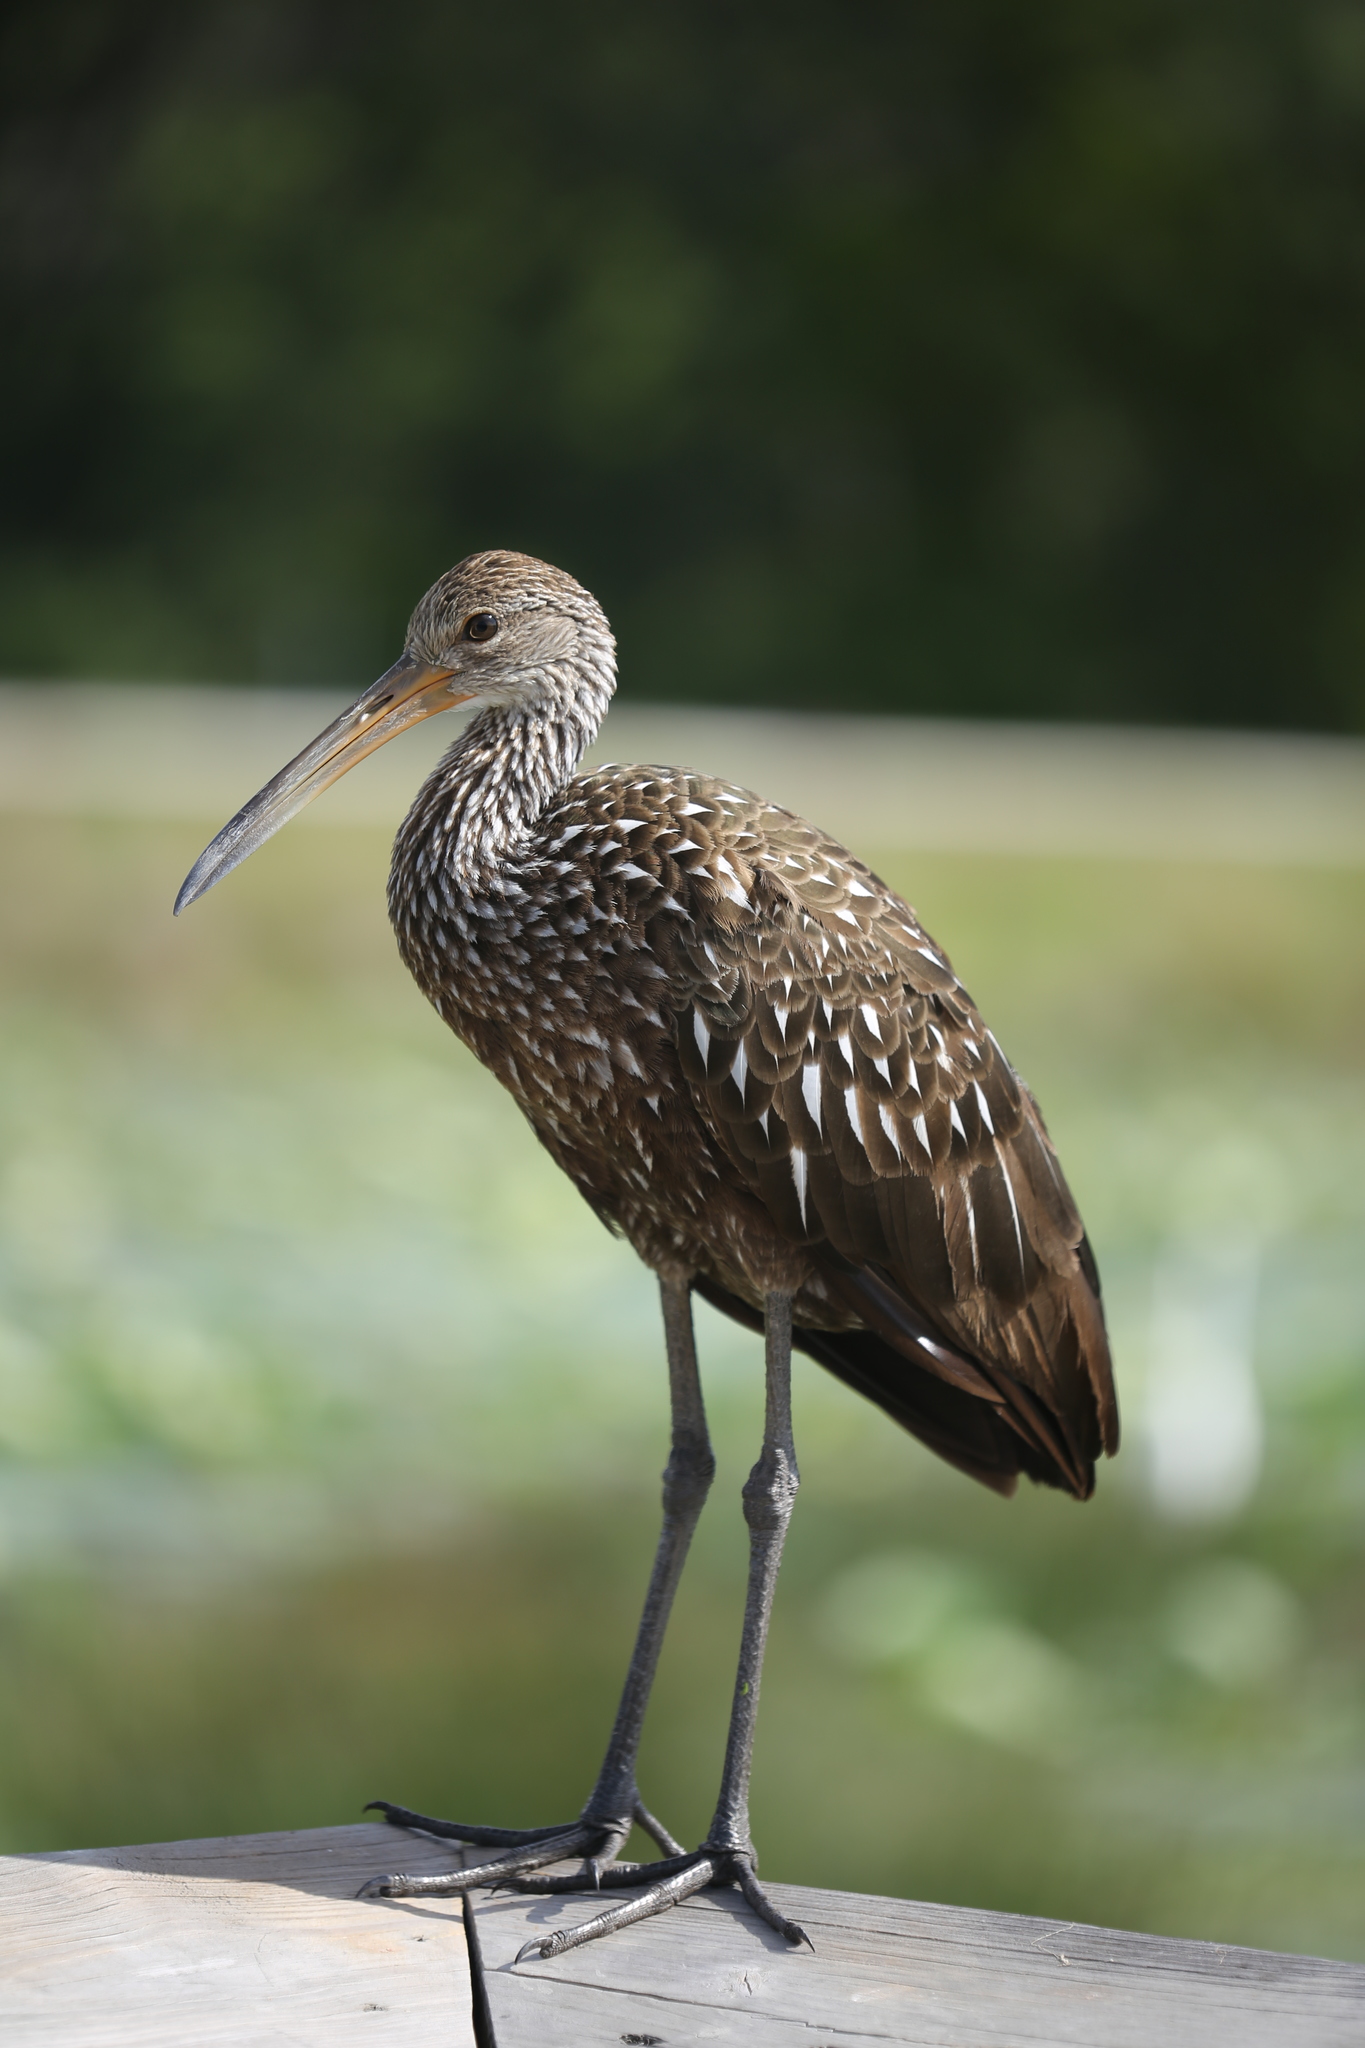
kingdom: Animalia
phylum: Chordata
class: Aves
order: Gruiformes
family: Aramidae
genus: Aramus
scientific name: Aramus guarauna
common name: Limpkin
